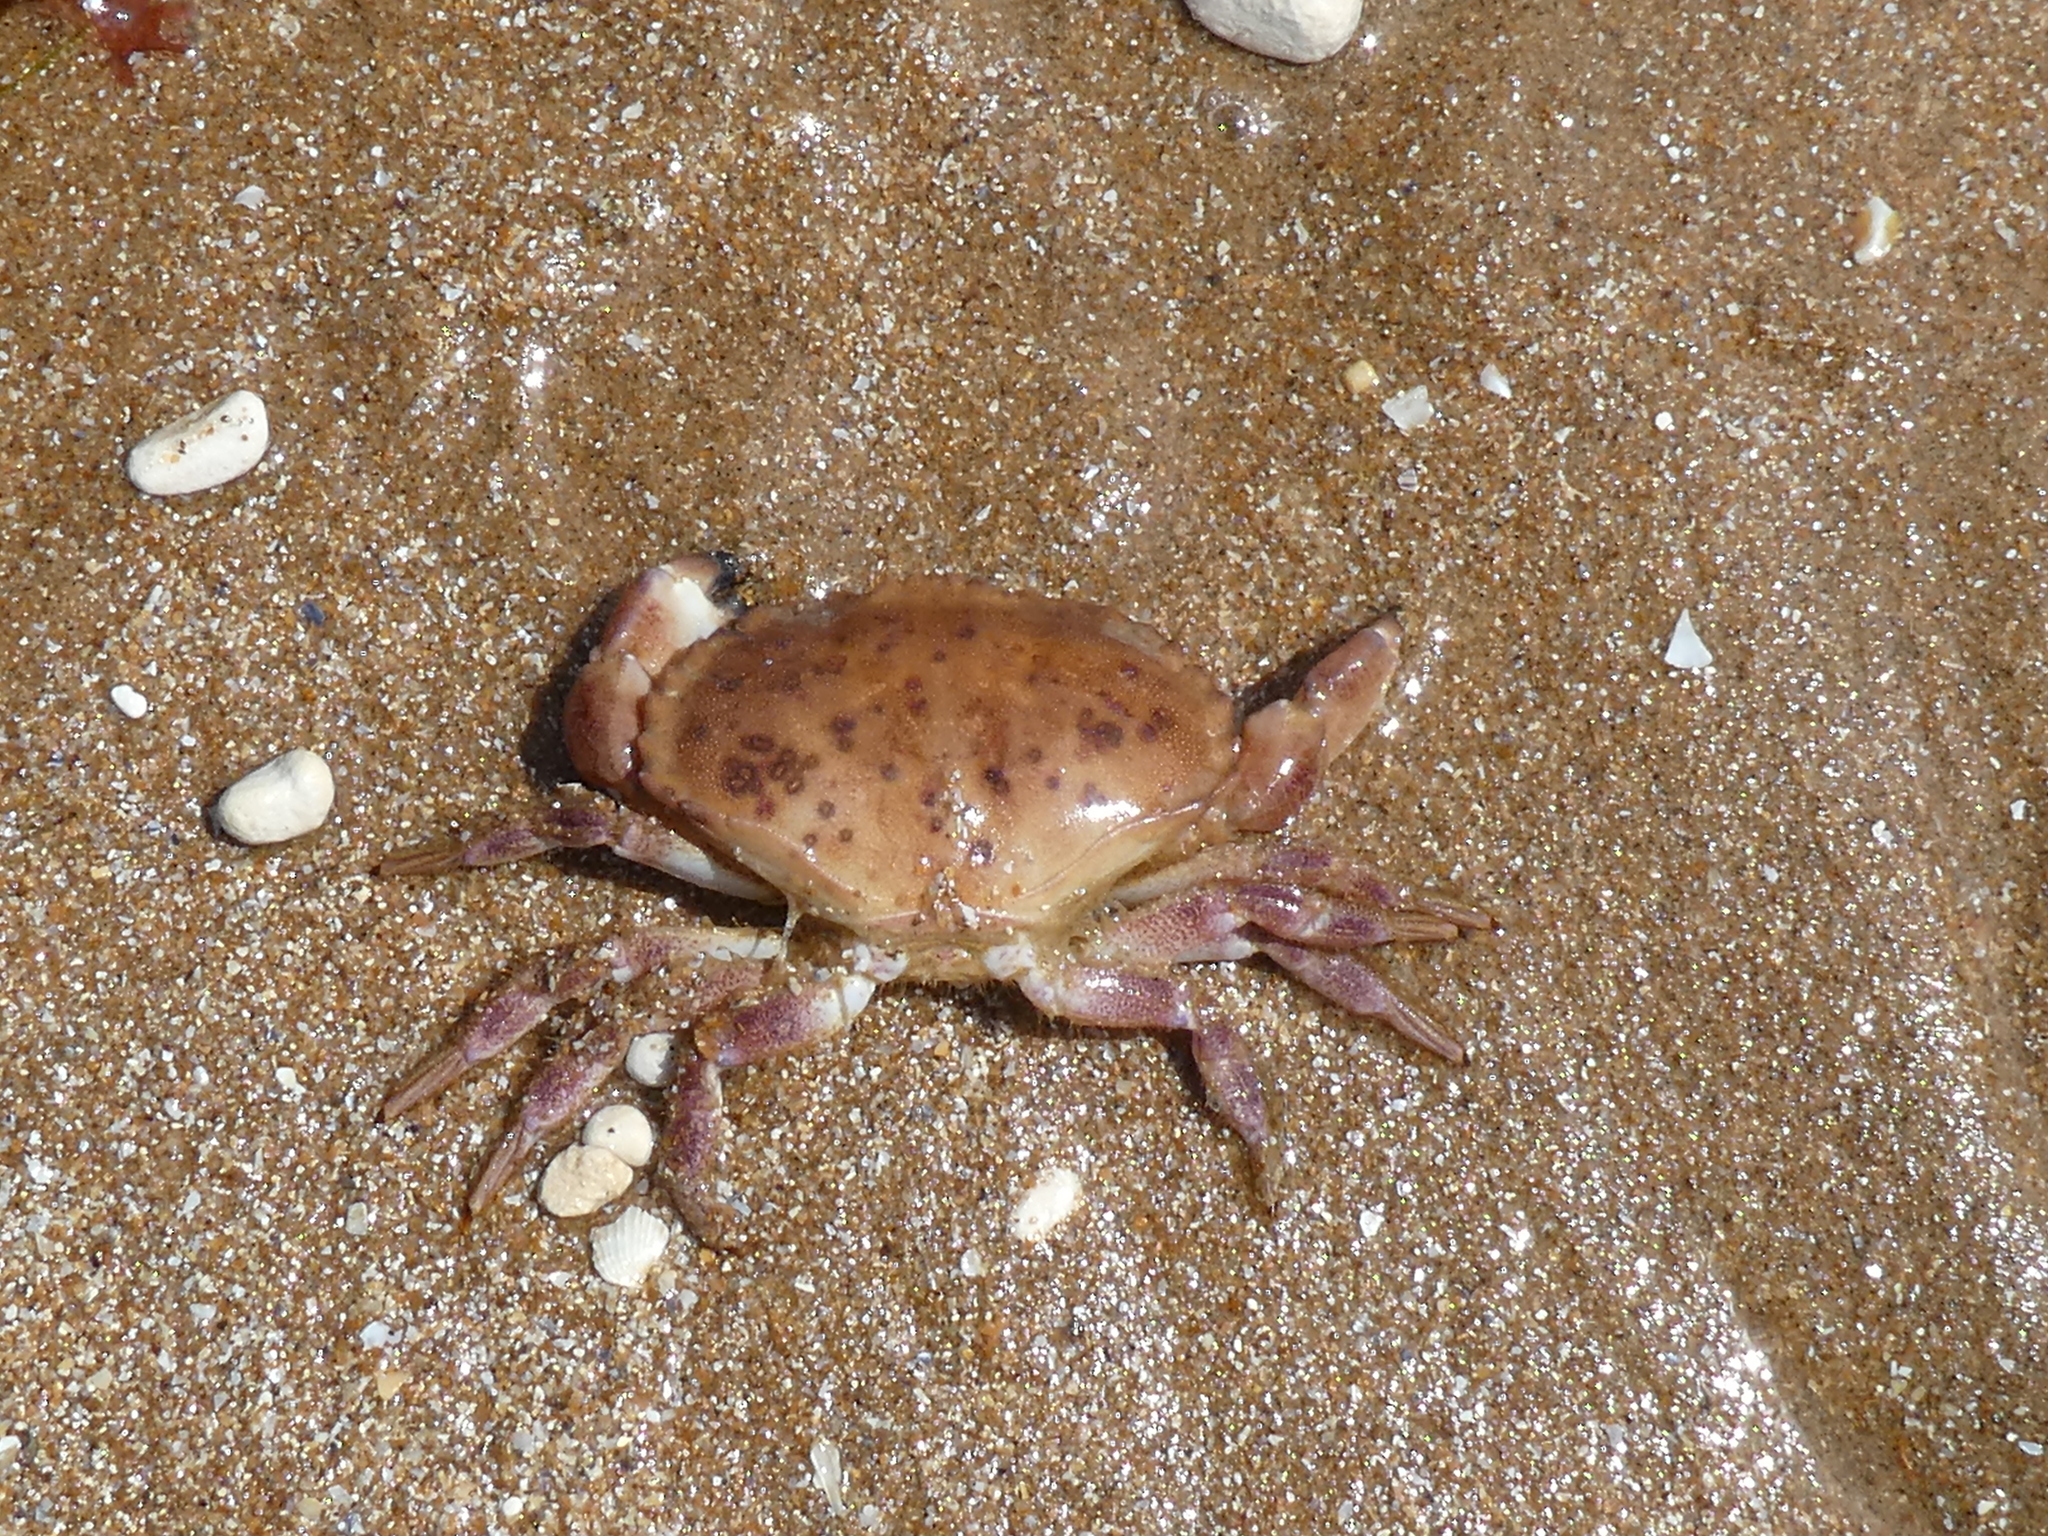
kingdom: Animalia
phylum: Arthropoda
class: Malacostraca
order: Decapoda
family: Cancridae
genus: Cancer
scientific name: Cancer pagurus
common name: Edible crab
